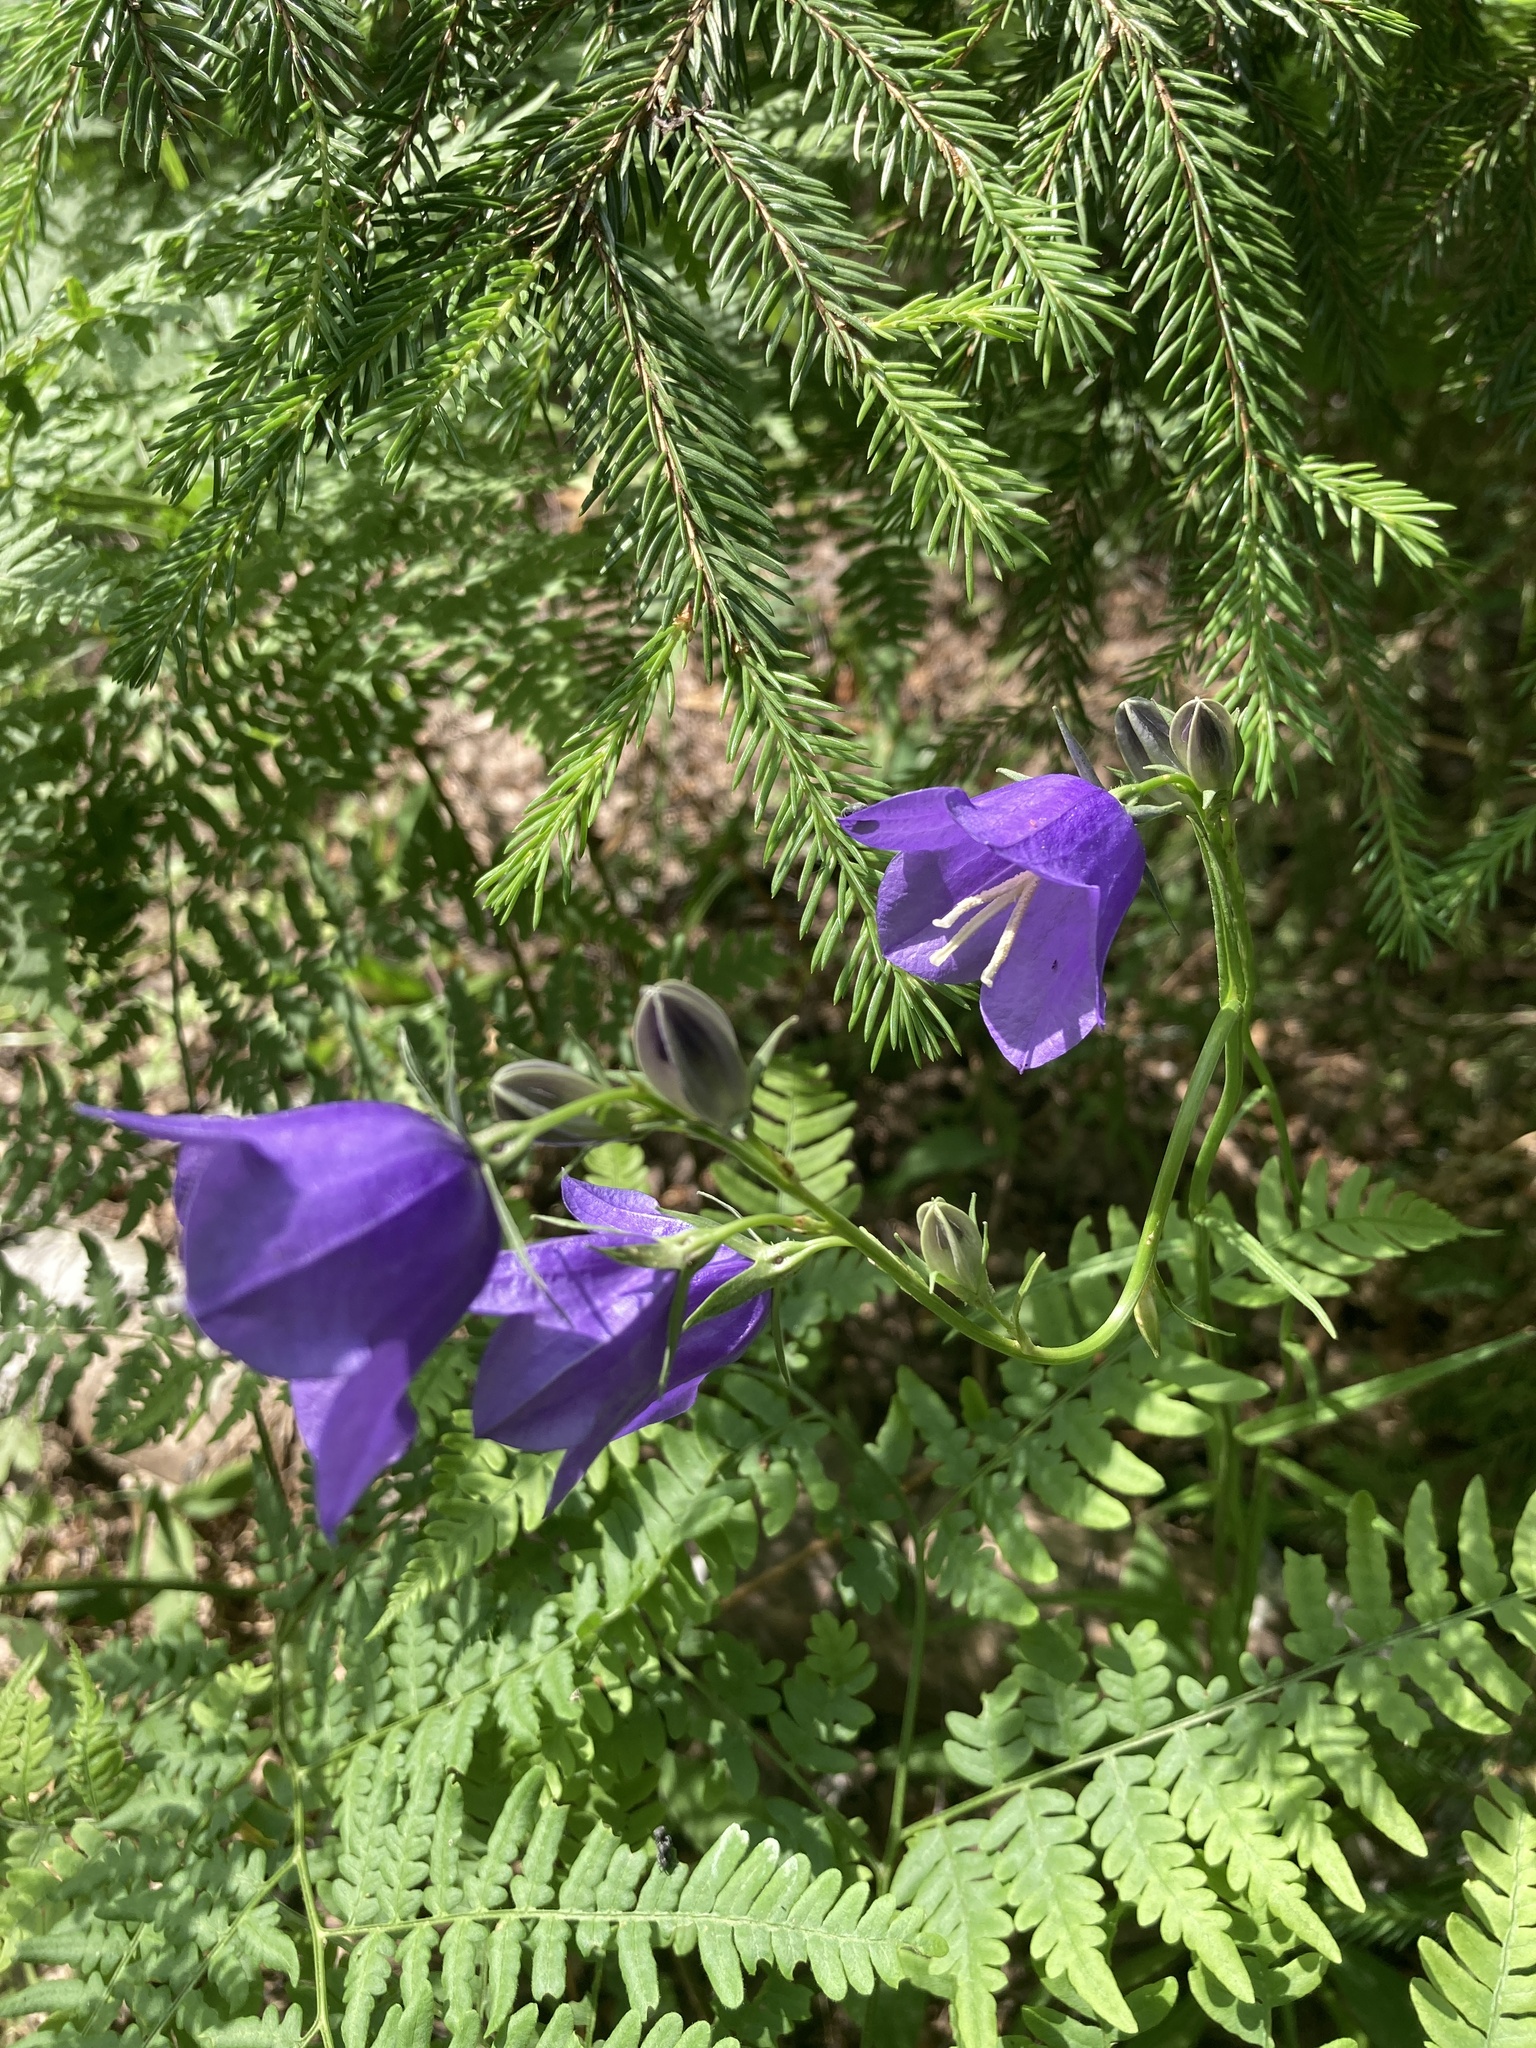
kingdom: Plantae
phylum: Tracheophyta
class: Magnoliopsida
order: Asterales
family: Campanulaceae
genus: Campanula
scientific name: Campanula persicifolia
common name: Peach-leaved bellflower
